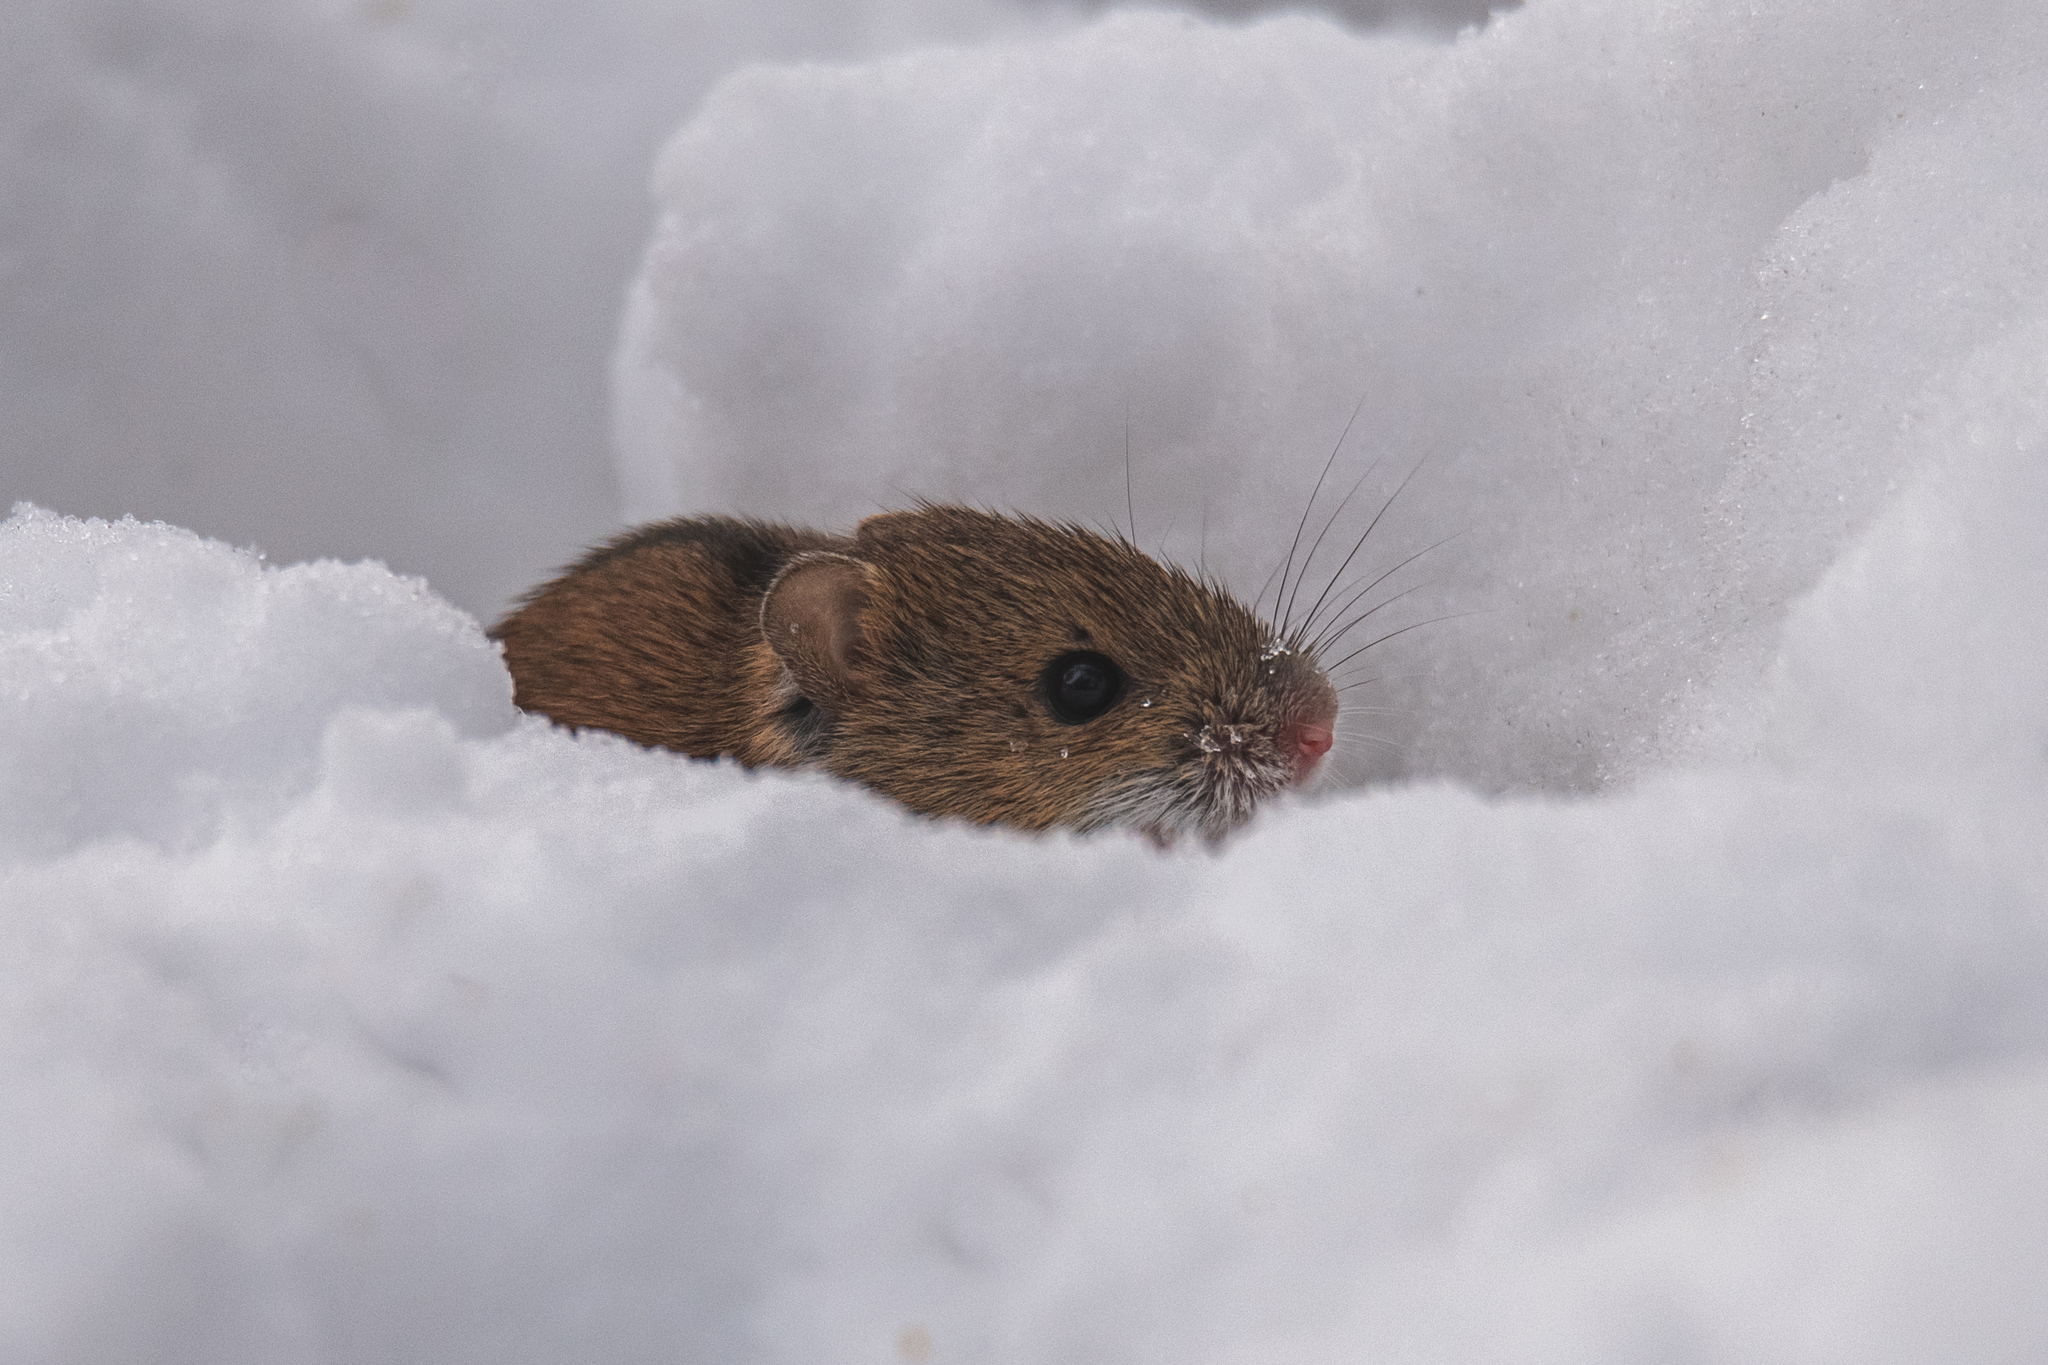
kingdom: Animalia
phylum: Chordata
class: Mammalia
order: Rodentia
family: Muridae
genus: Apodemus
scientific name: Apodemus agrarius
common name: Striped field mouse
